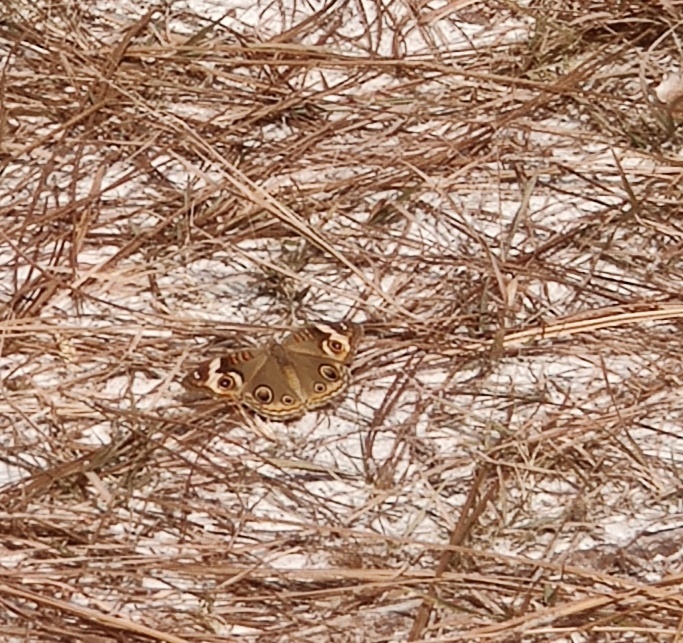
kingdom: Animalia
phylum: Arthropoda
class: Insecta
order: Lepidoptera
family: Nymphalidae
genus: Junonia
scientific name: Junonia coenia
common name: Common buckeye
